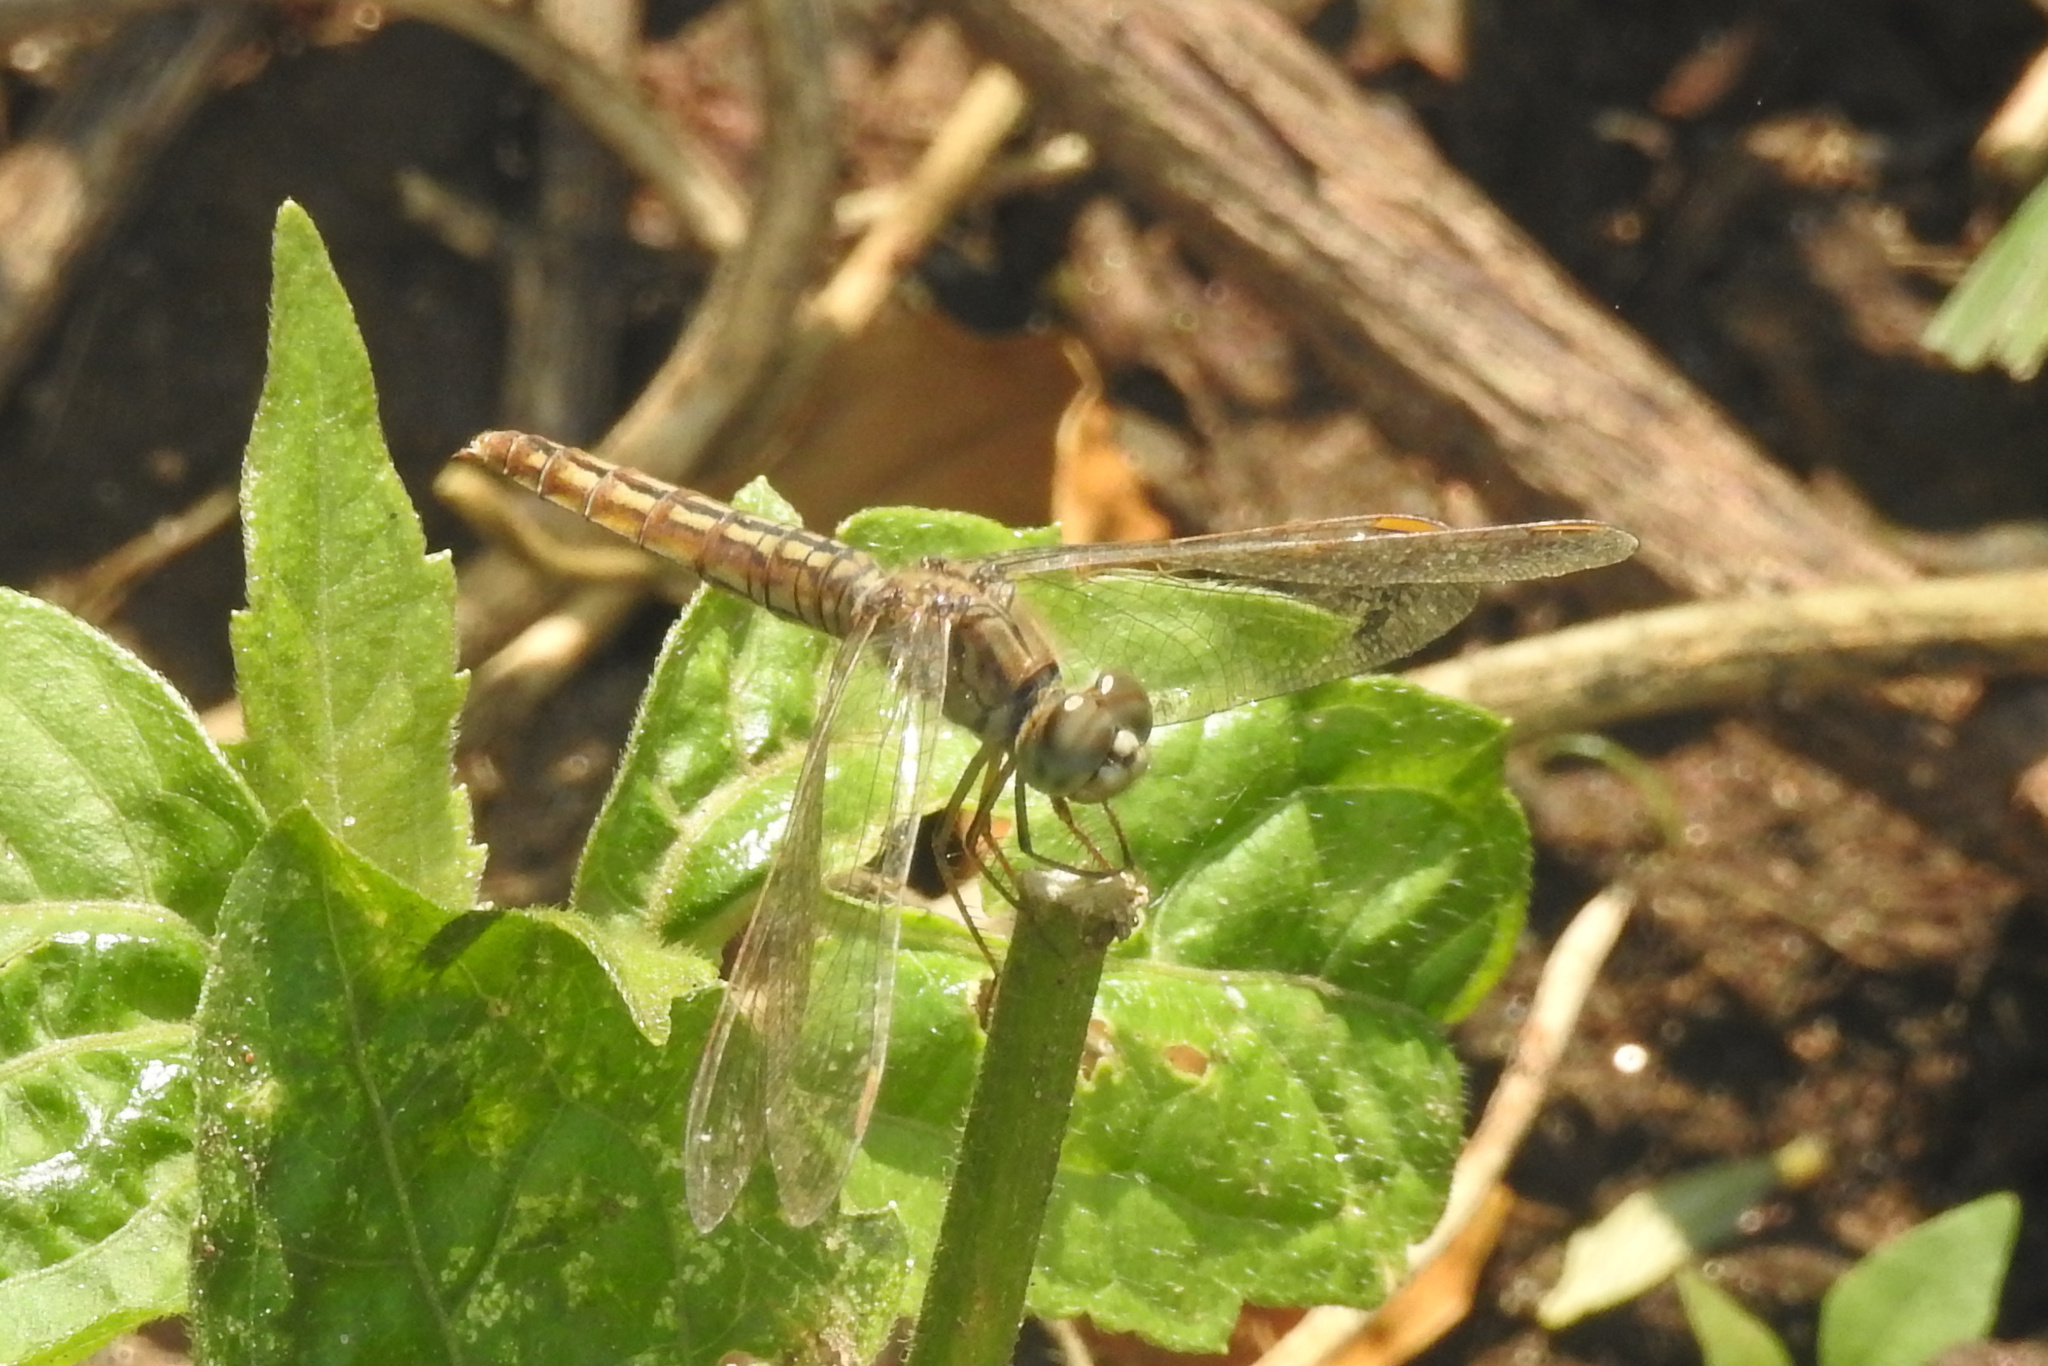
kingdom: Animalia
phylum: Arthropoda
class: Insecta
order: Odonata
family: Libellulidae
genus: Brachythemis
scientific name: Brachythemis contaminata
